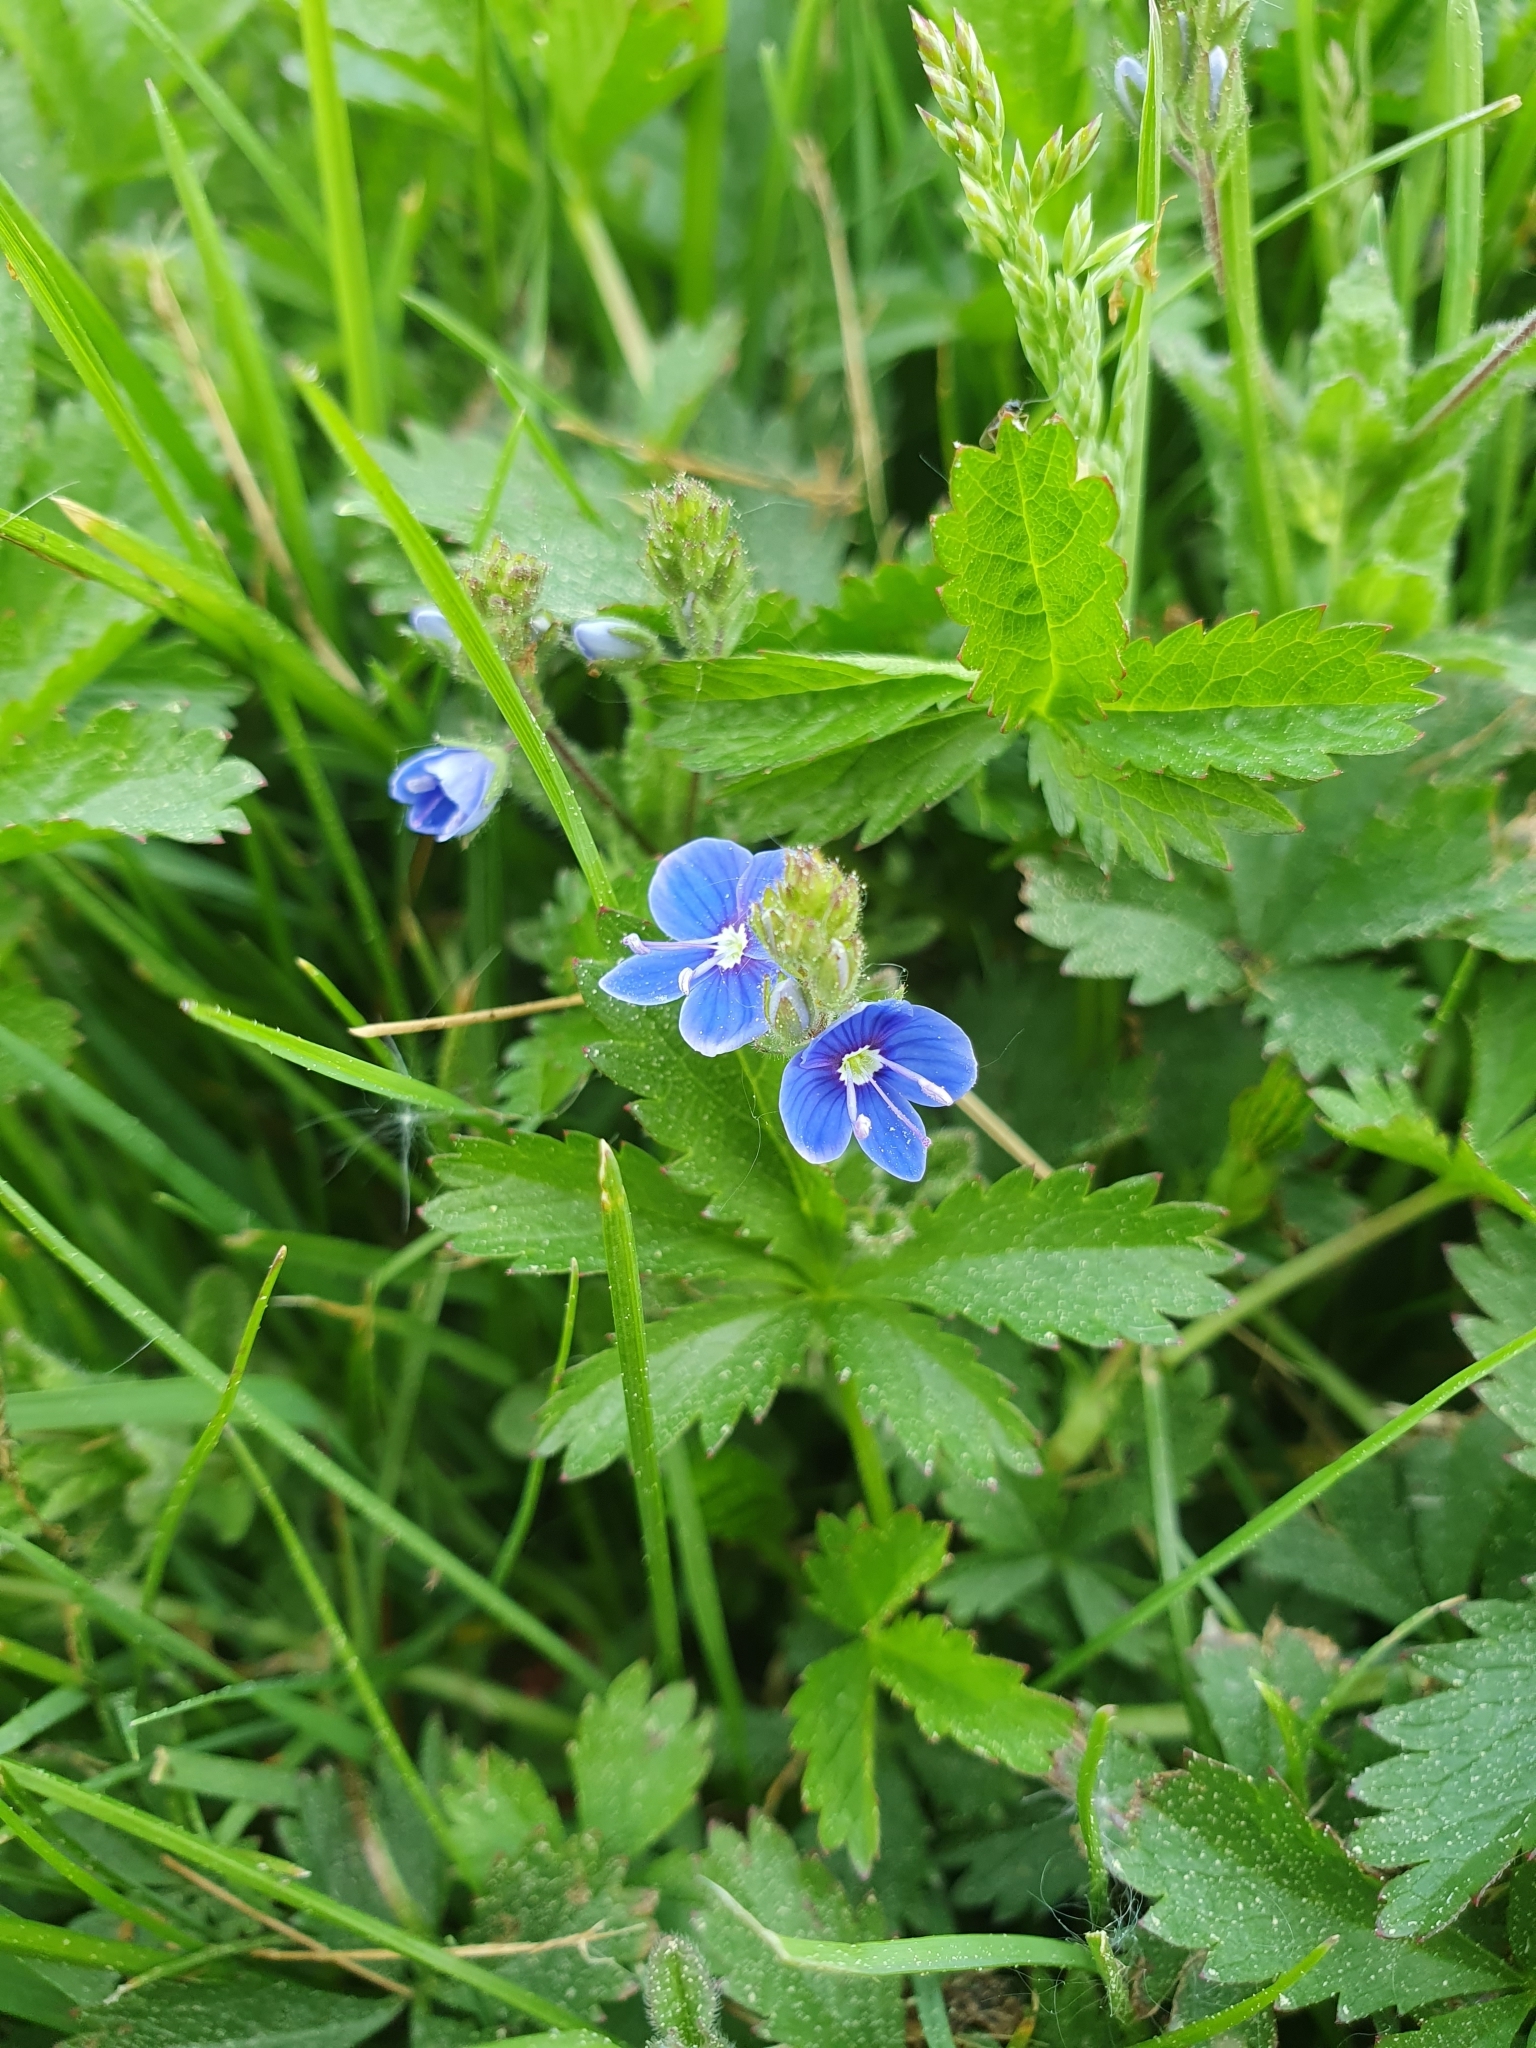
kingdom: Plantae
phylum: Tracheophyta
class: Magnoliopsida
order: Lamiales
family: Plantaginaceae
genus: Veronica
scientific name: Veronica chamaedrys
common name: Germander speedwell
